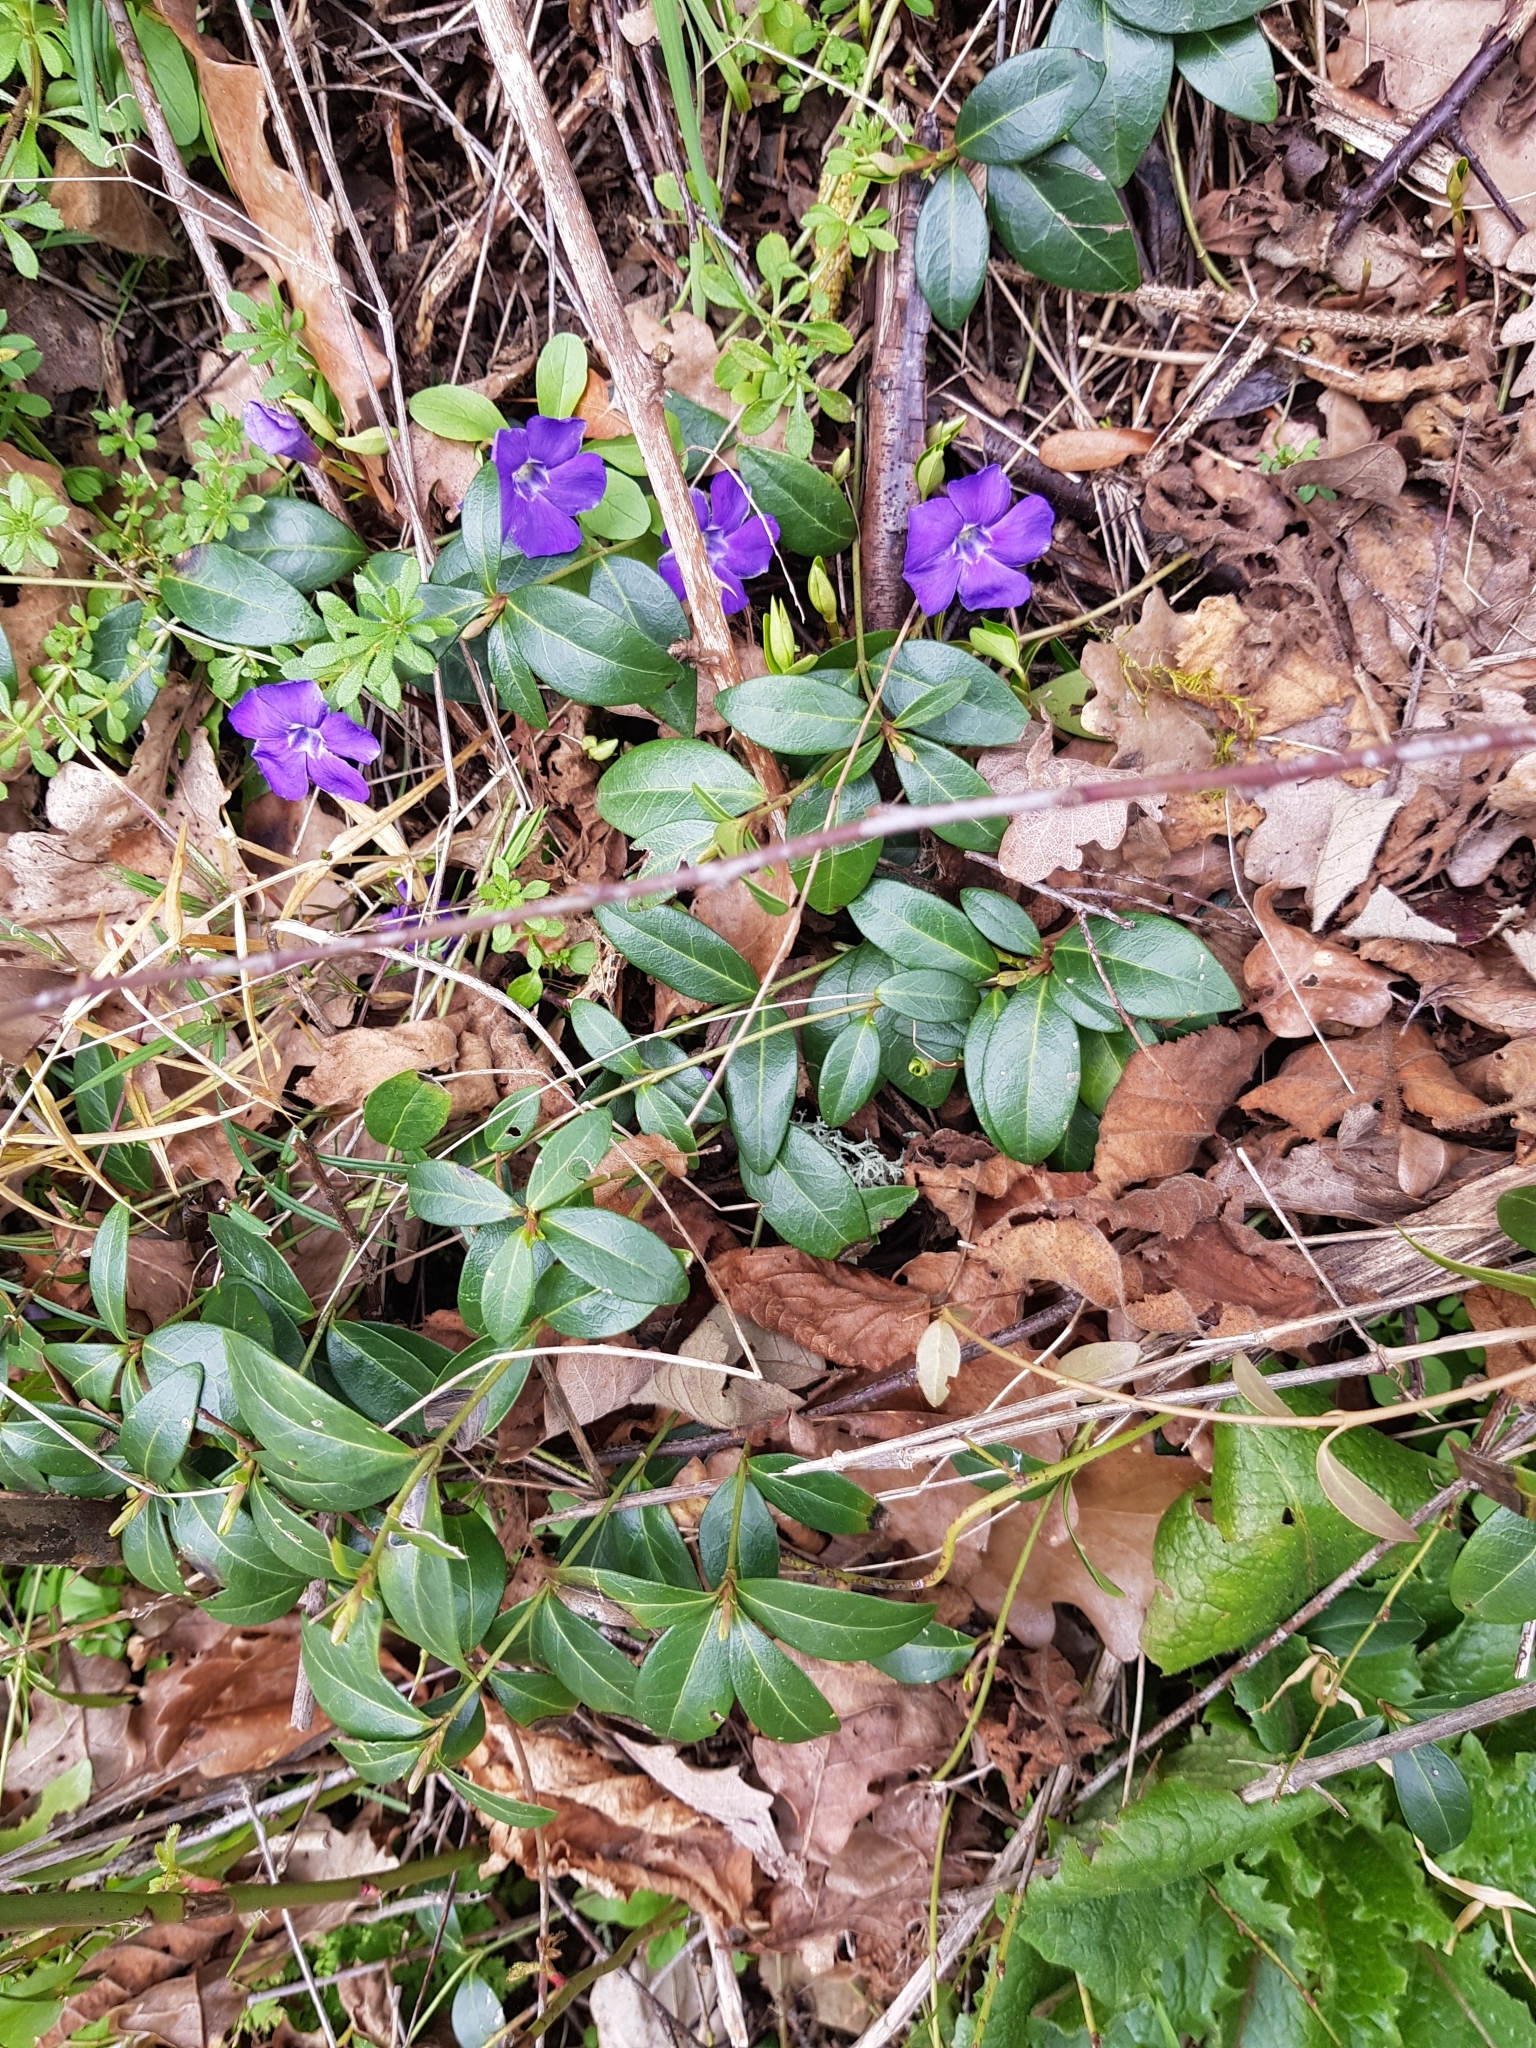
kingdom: Plantae
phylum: Tracheophyta
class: Magnoliopsida
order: Gentianales
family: Apocynaceae
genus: Vinca
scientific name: Vinca minor
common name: Lesser periwinkle
